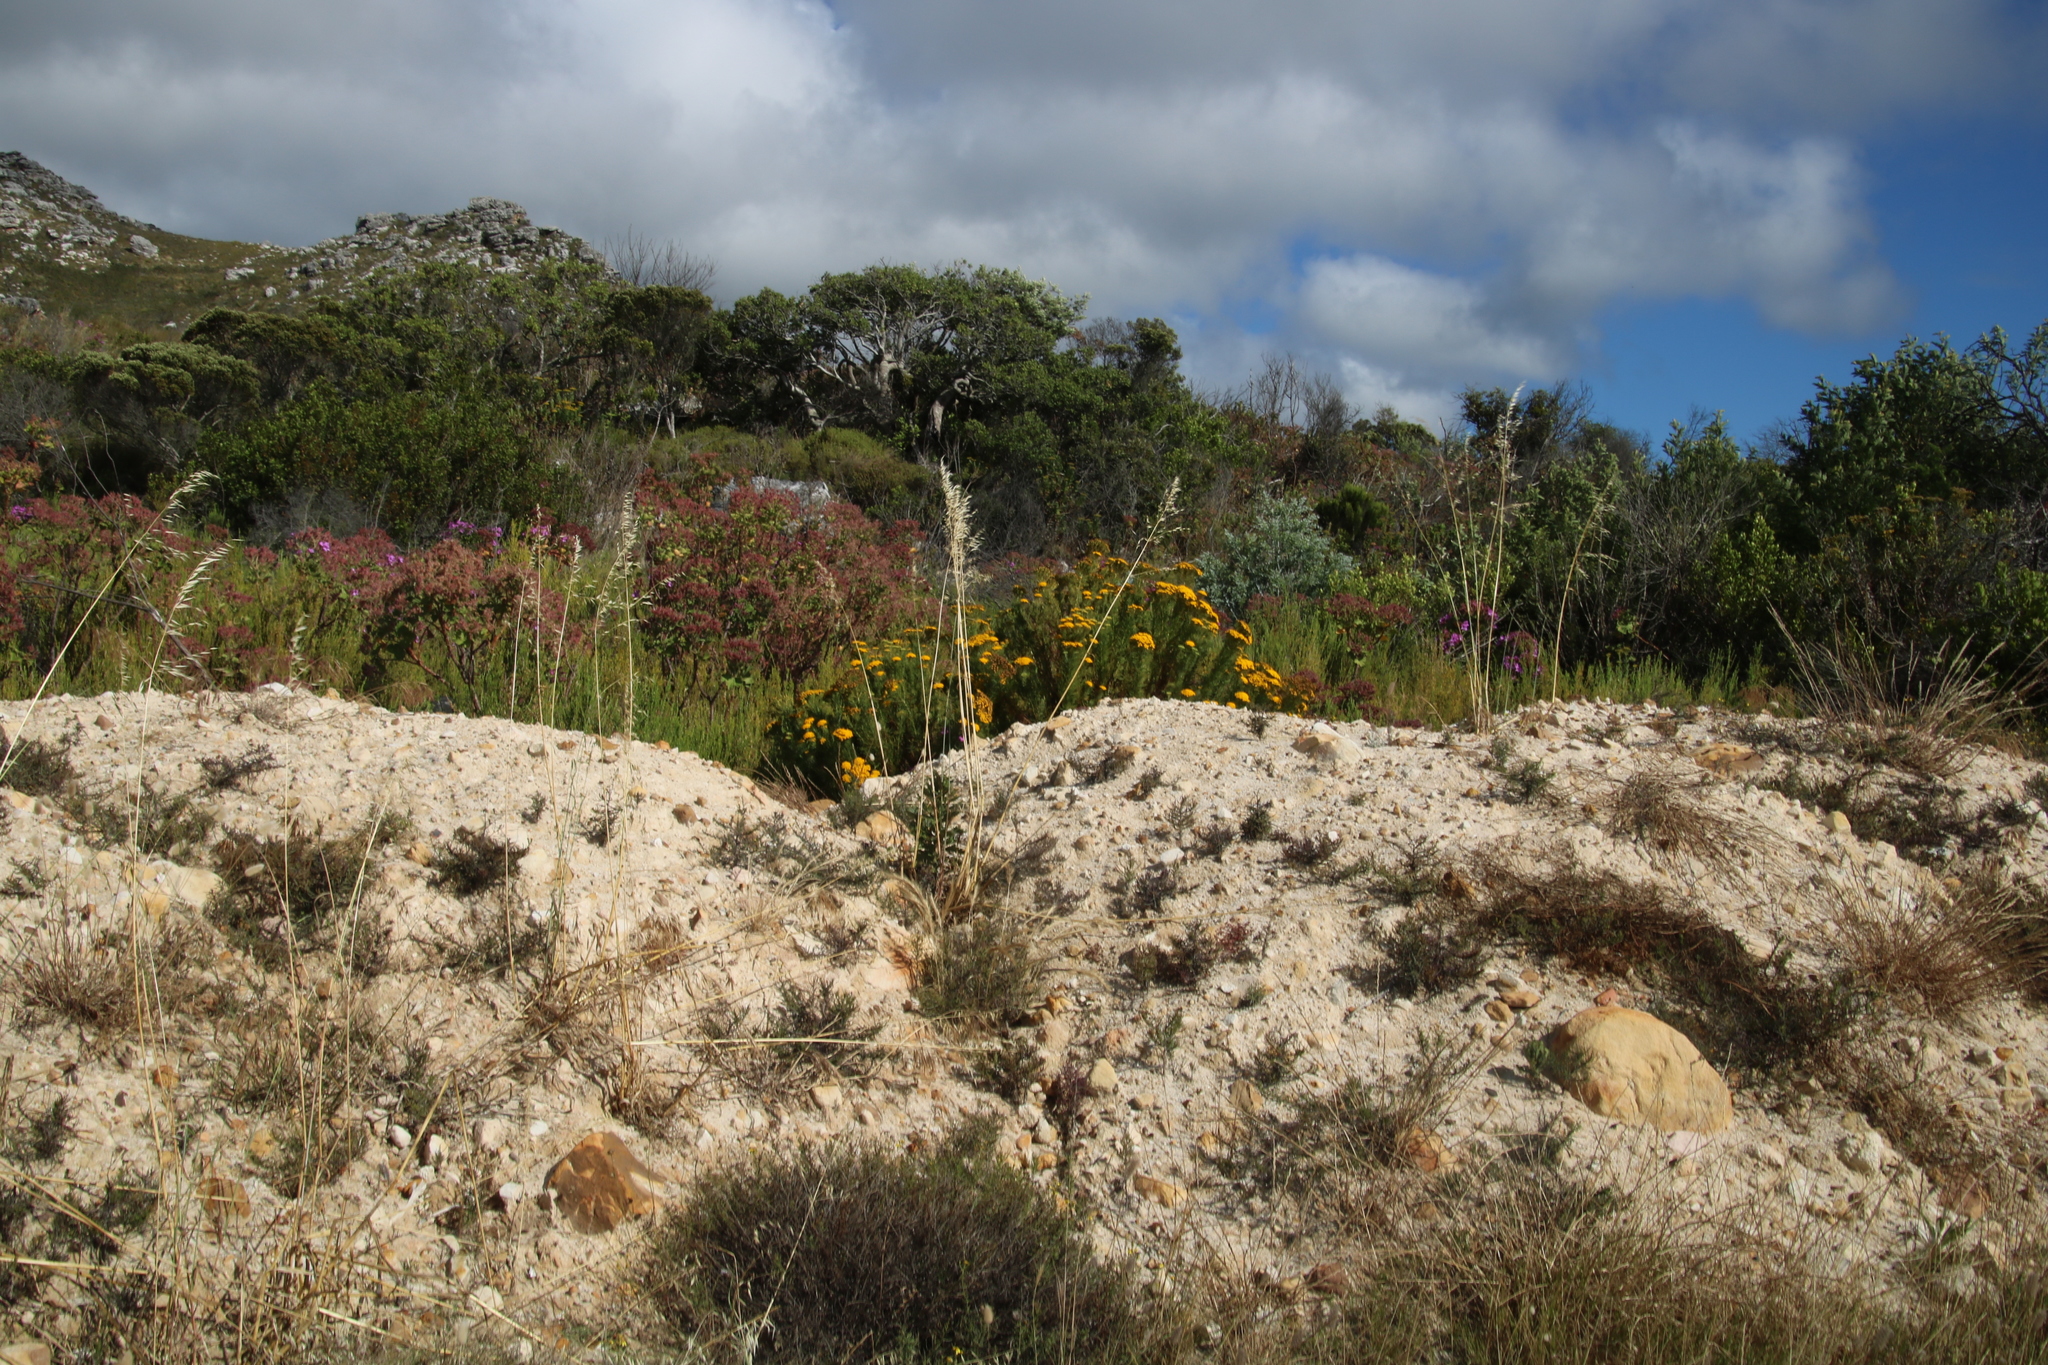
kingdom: Plantae
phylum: Tracheophyta
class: Liliopsida
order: Poales
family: Poaceae
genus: Avena
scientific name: Avena fatua
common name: Wild oat
